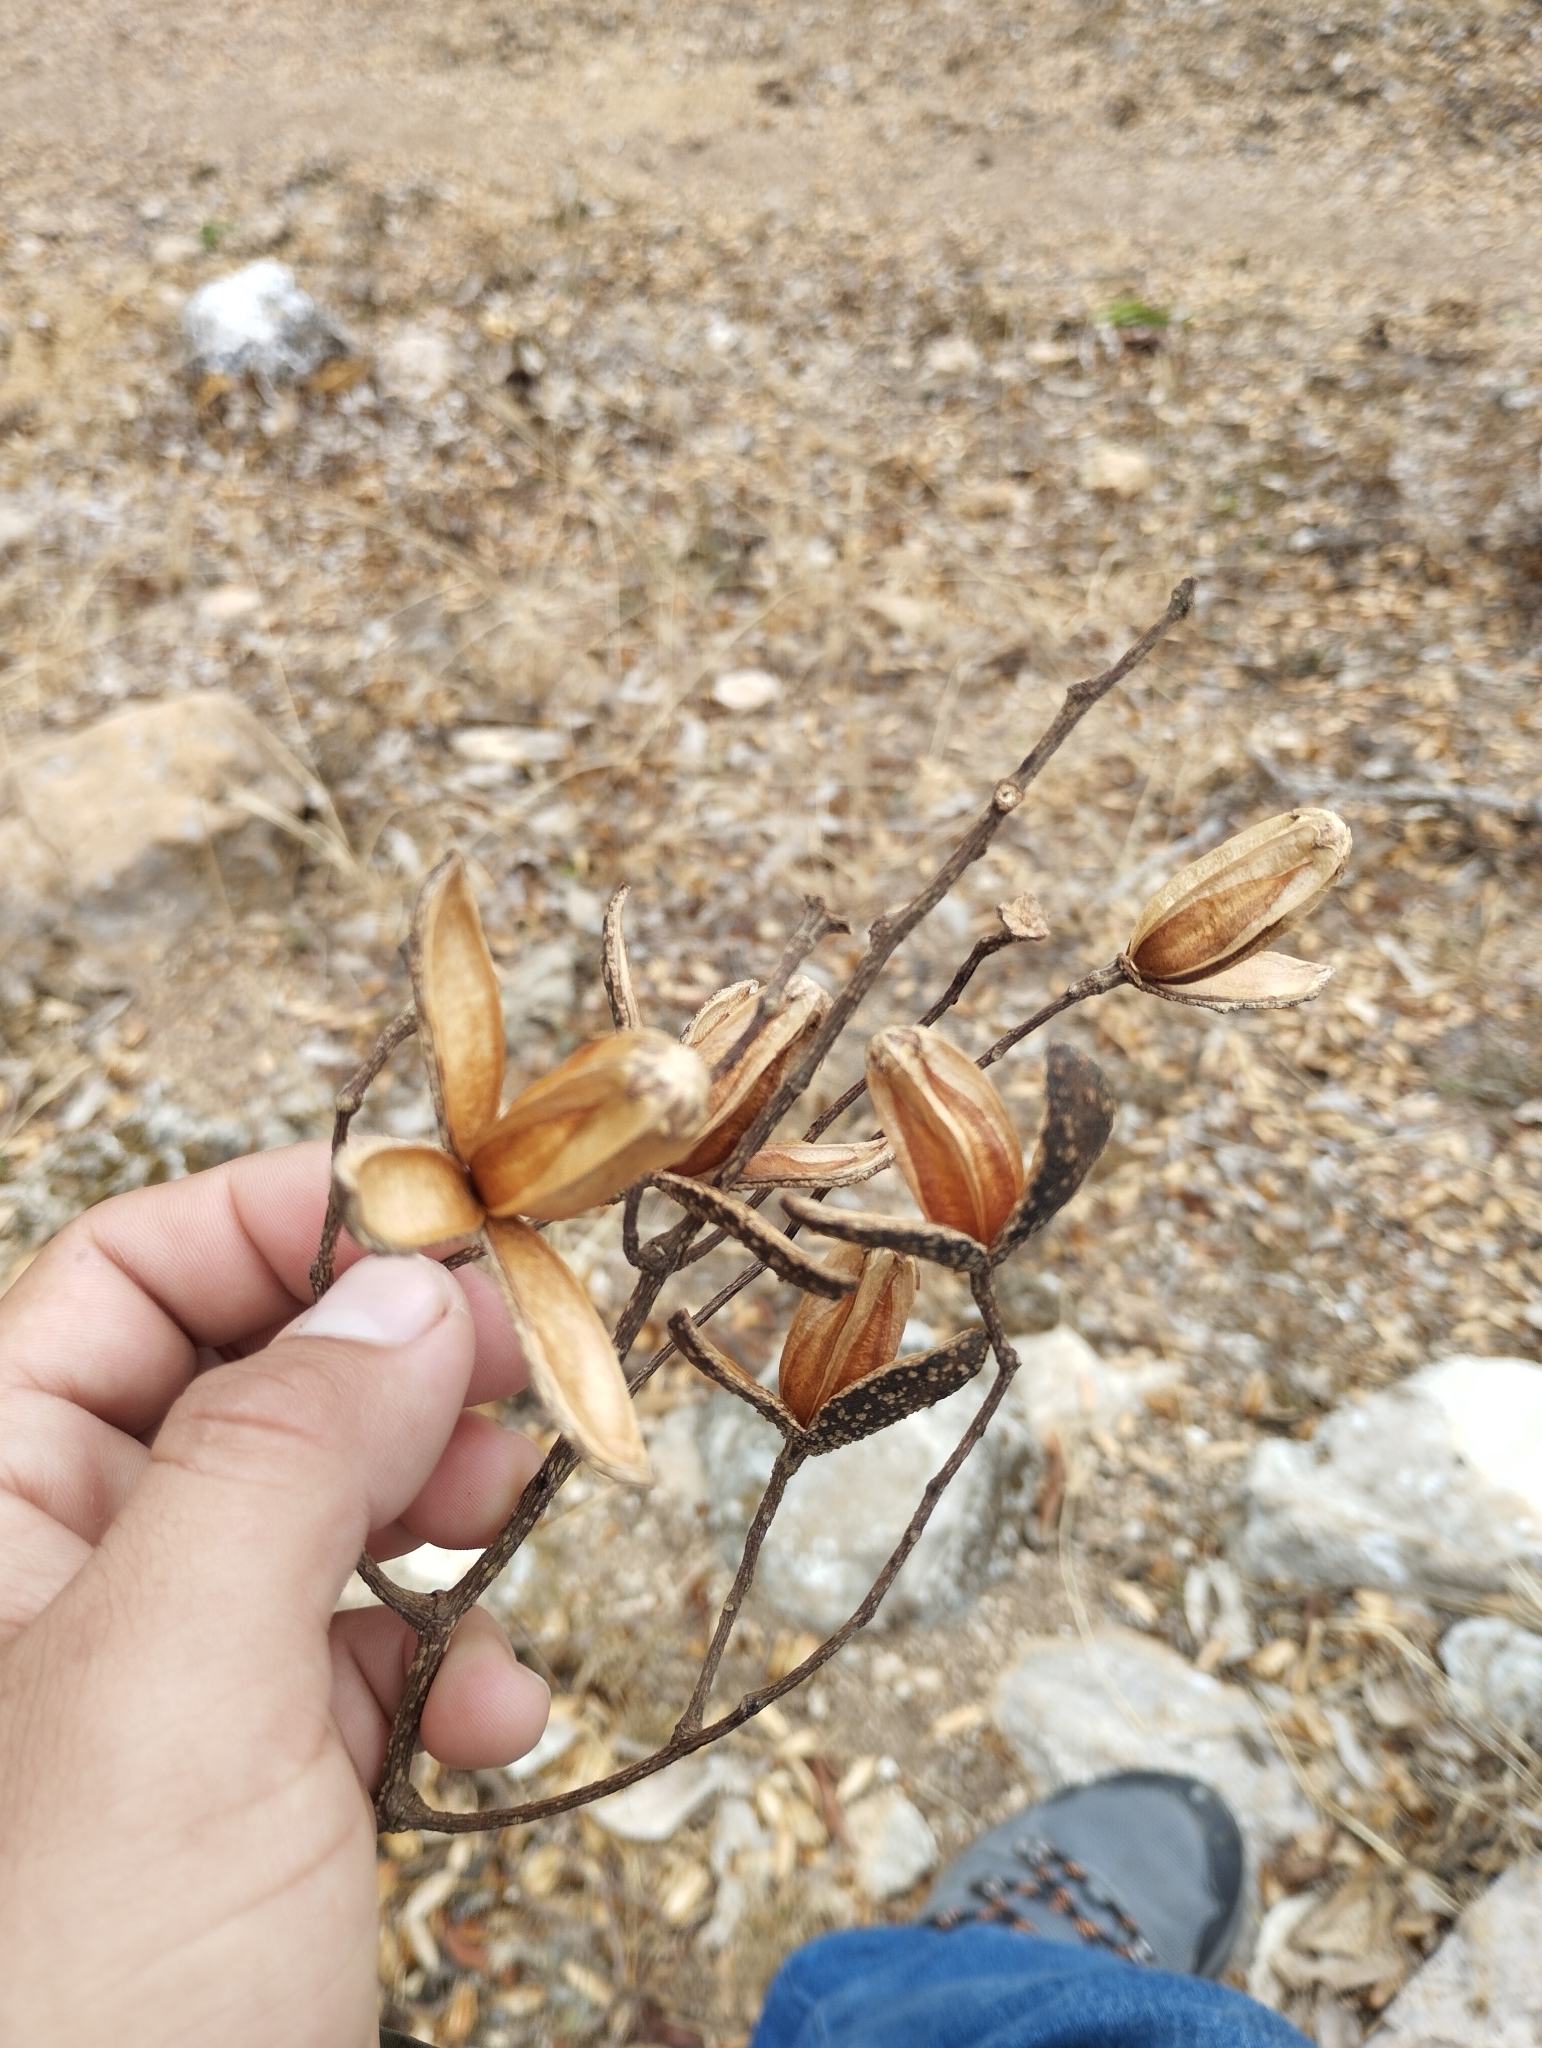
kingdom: Plantae
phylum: Tracheophyta
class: Magnoliopsida
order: Sapindales
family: Meliaceae
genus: Cedrela
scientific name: Cedrela odorata
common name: Red cedar
